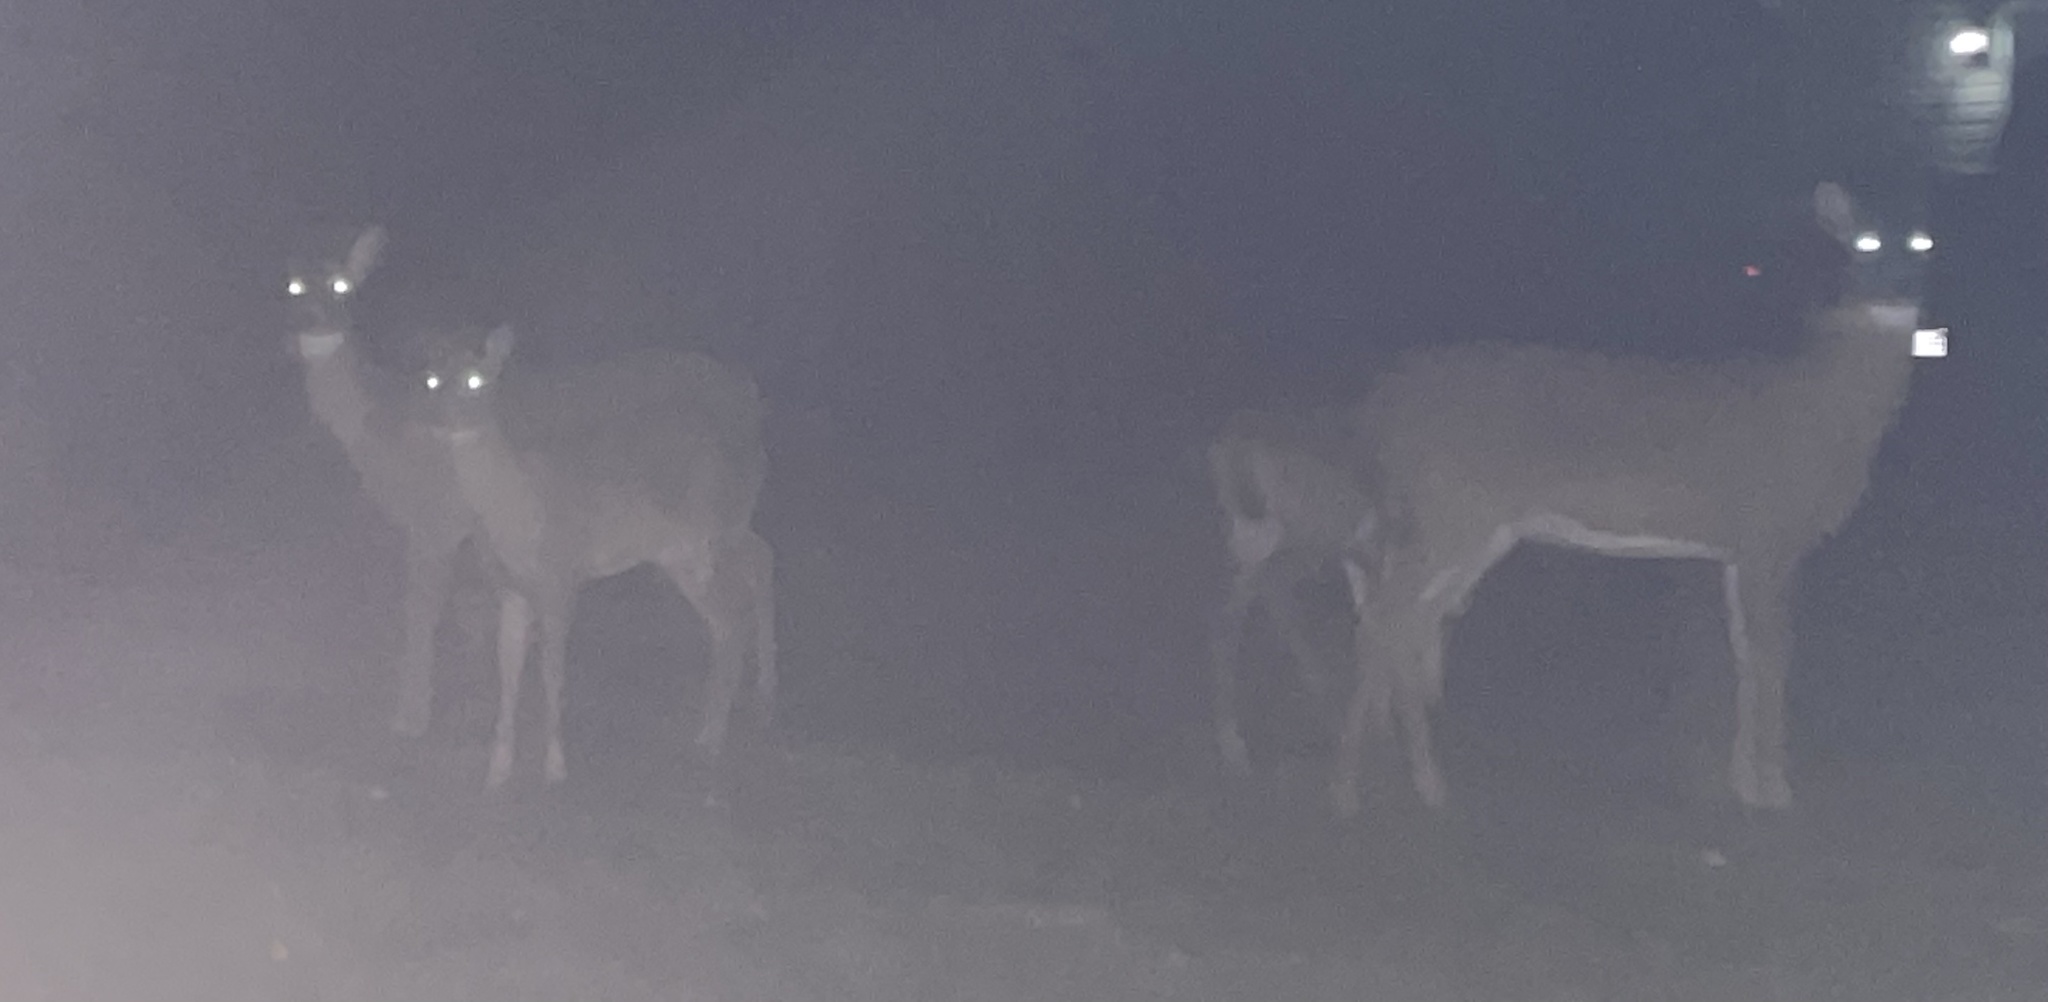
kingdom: Animalia
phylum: Chordata
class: Mammalia
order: Artiodactyla
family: Cervidae
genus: Odocoileus
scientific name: Odocoileus virginianus
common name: White-tailed deer
